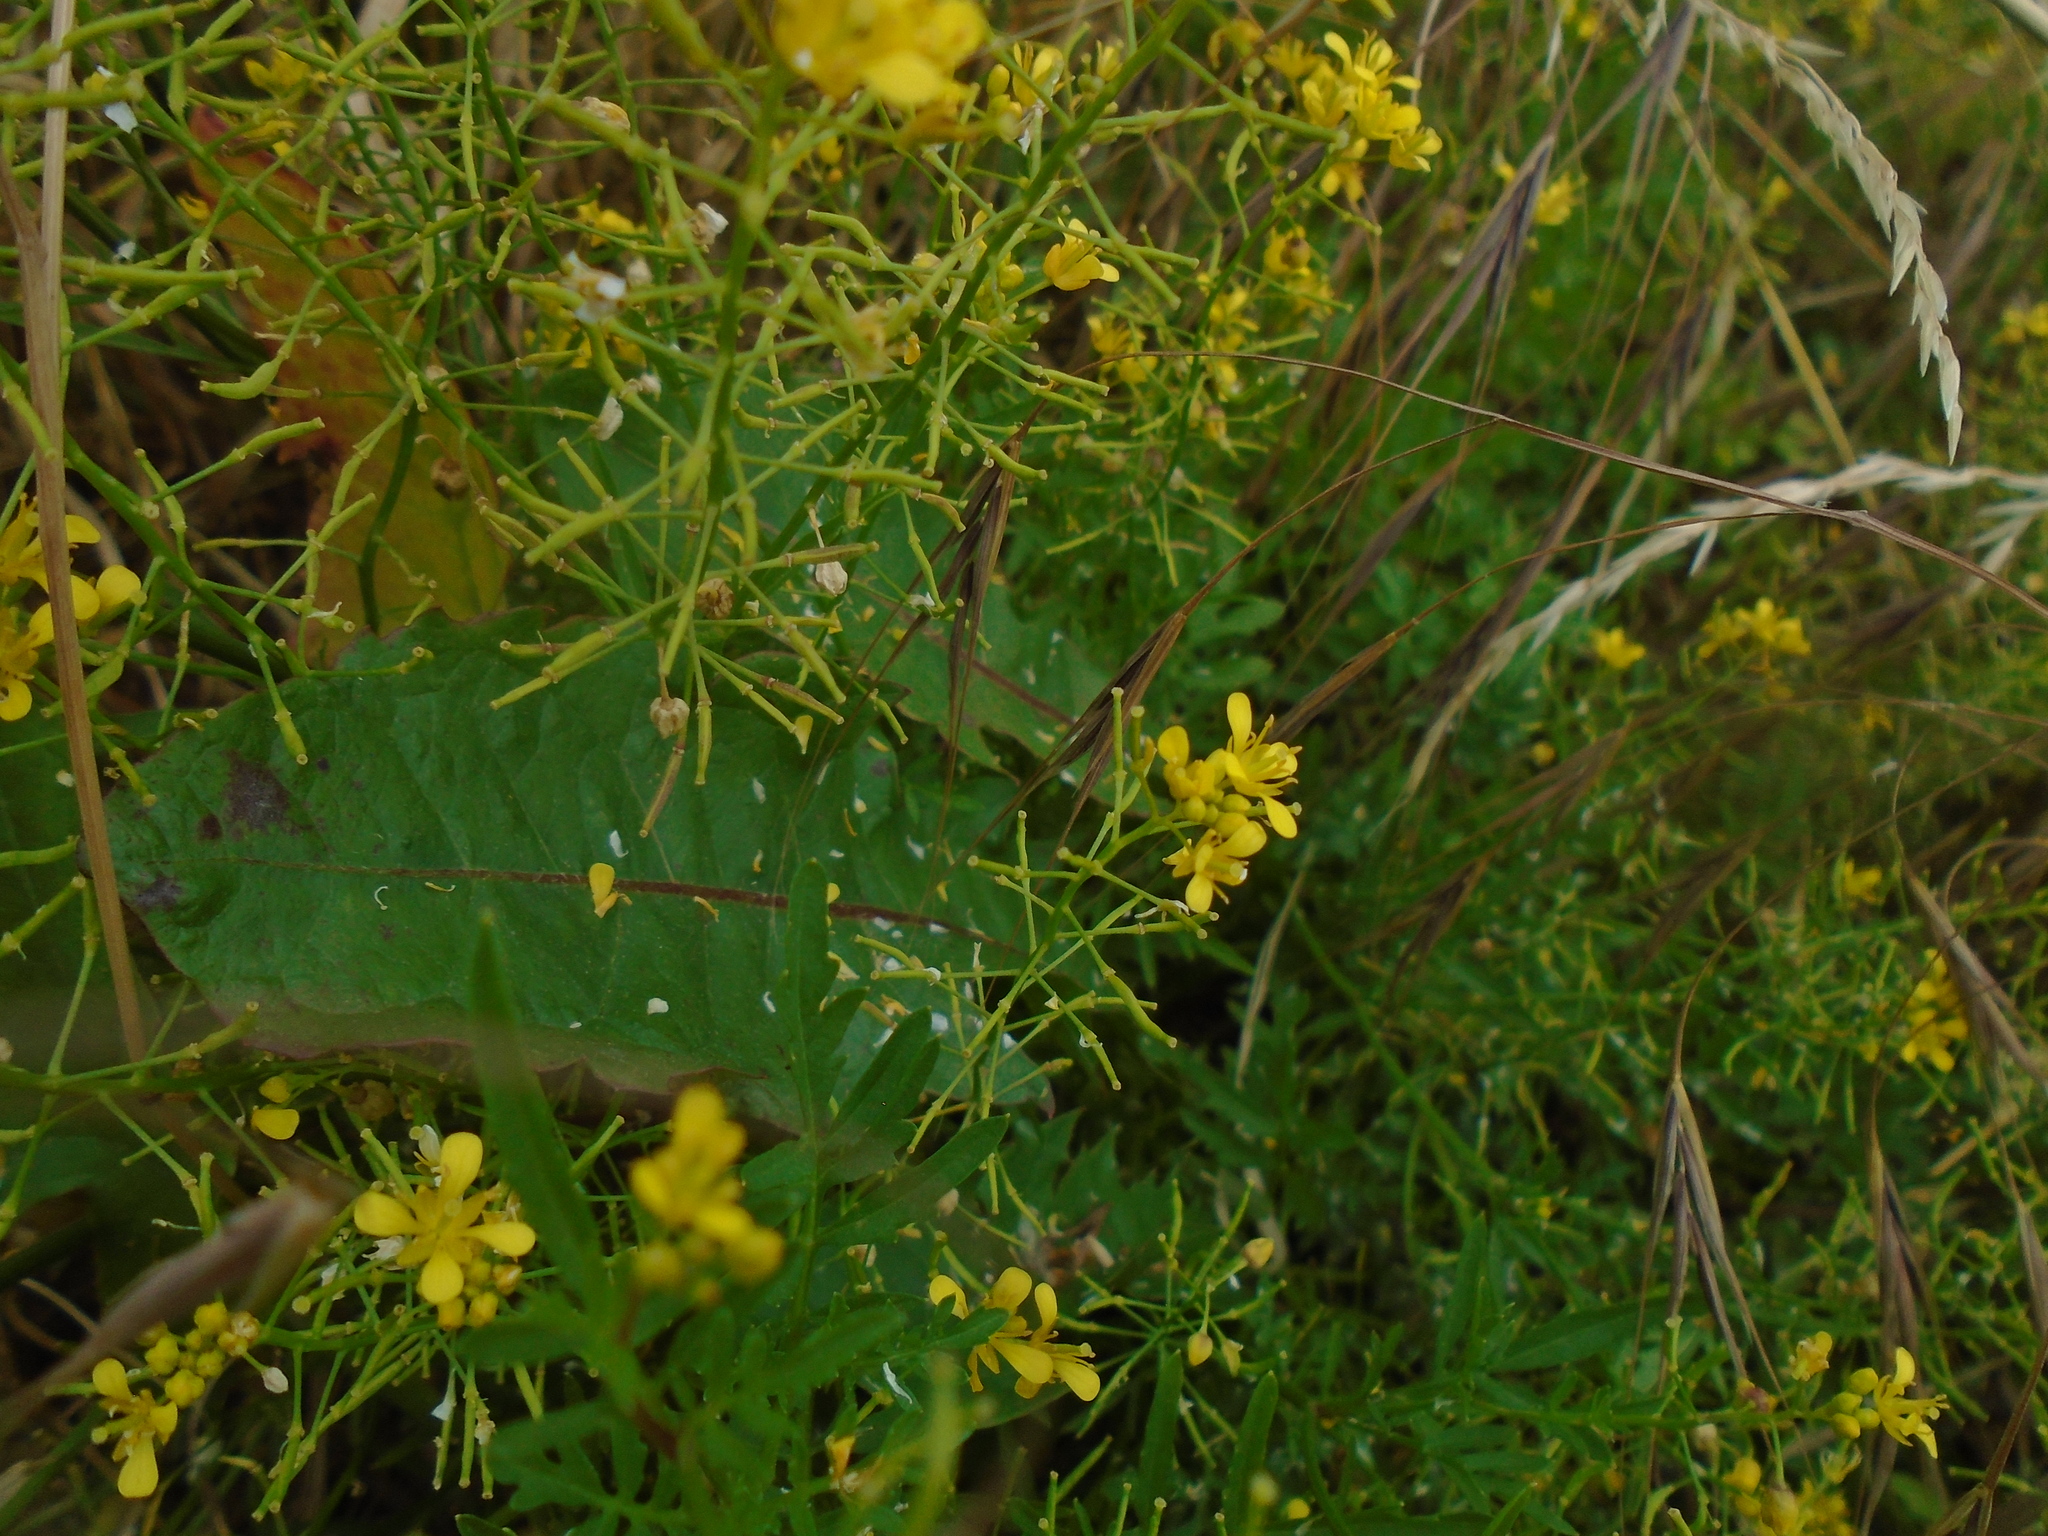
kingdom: Plantae
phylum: Tracheophyta
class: Magnoliopsida
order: Brassicales
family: Brassicaceae
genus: Rorippa
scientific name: Rorippa sylvestris
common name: Creeping yellowcress
